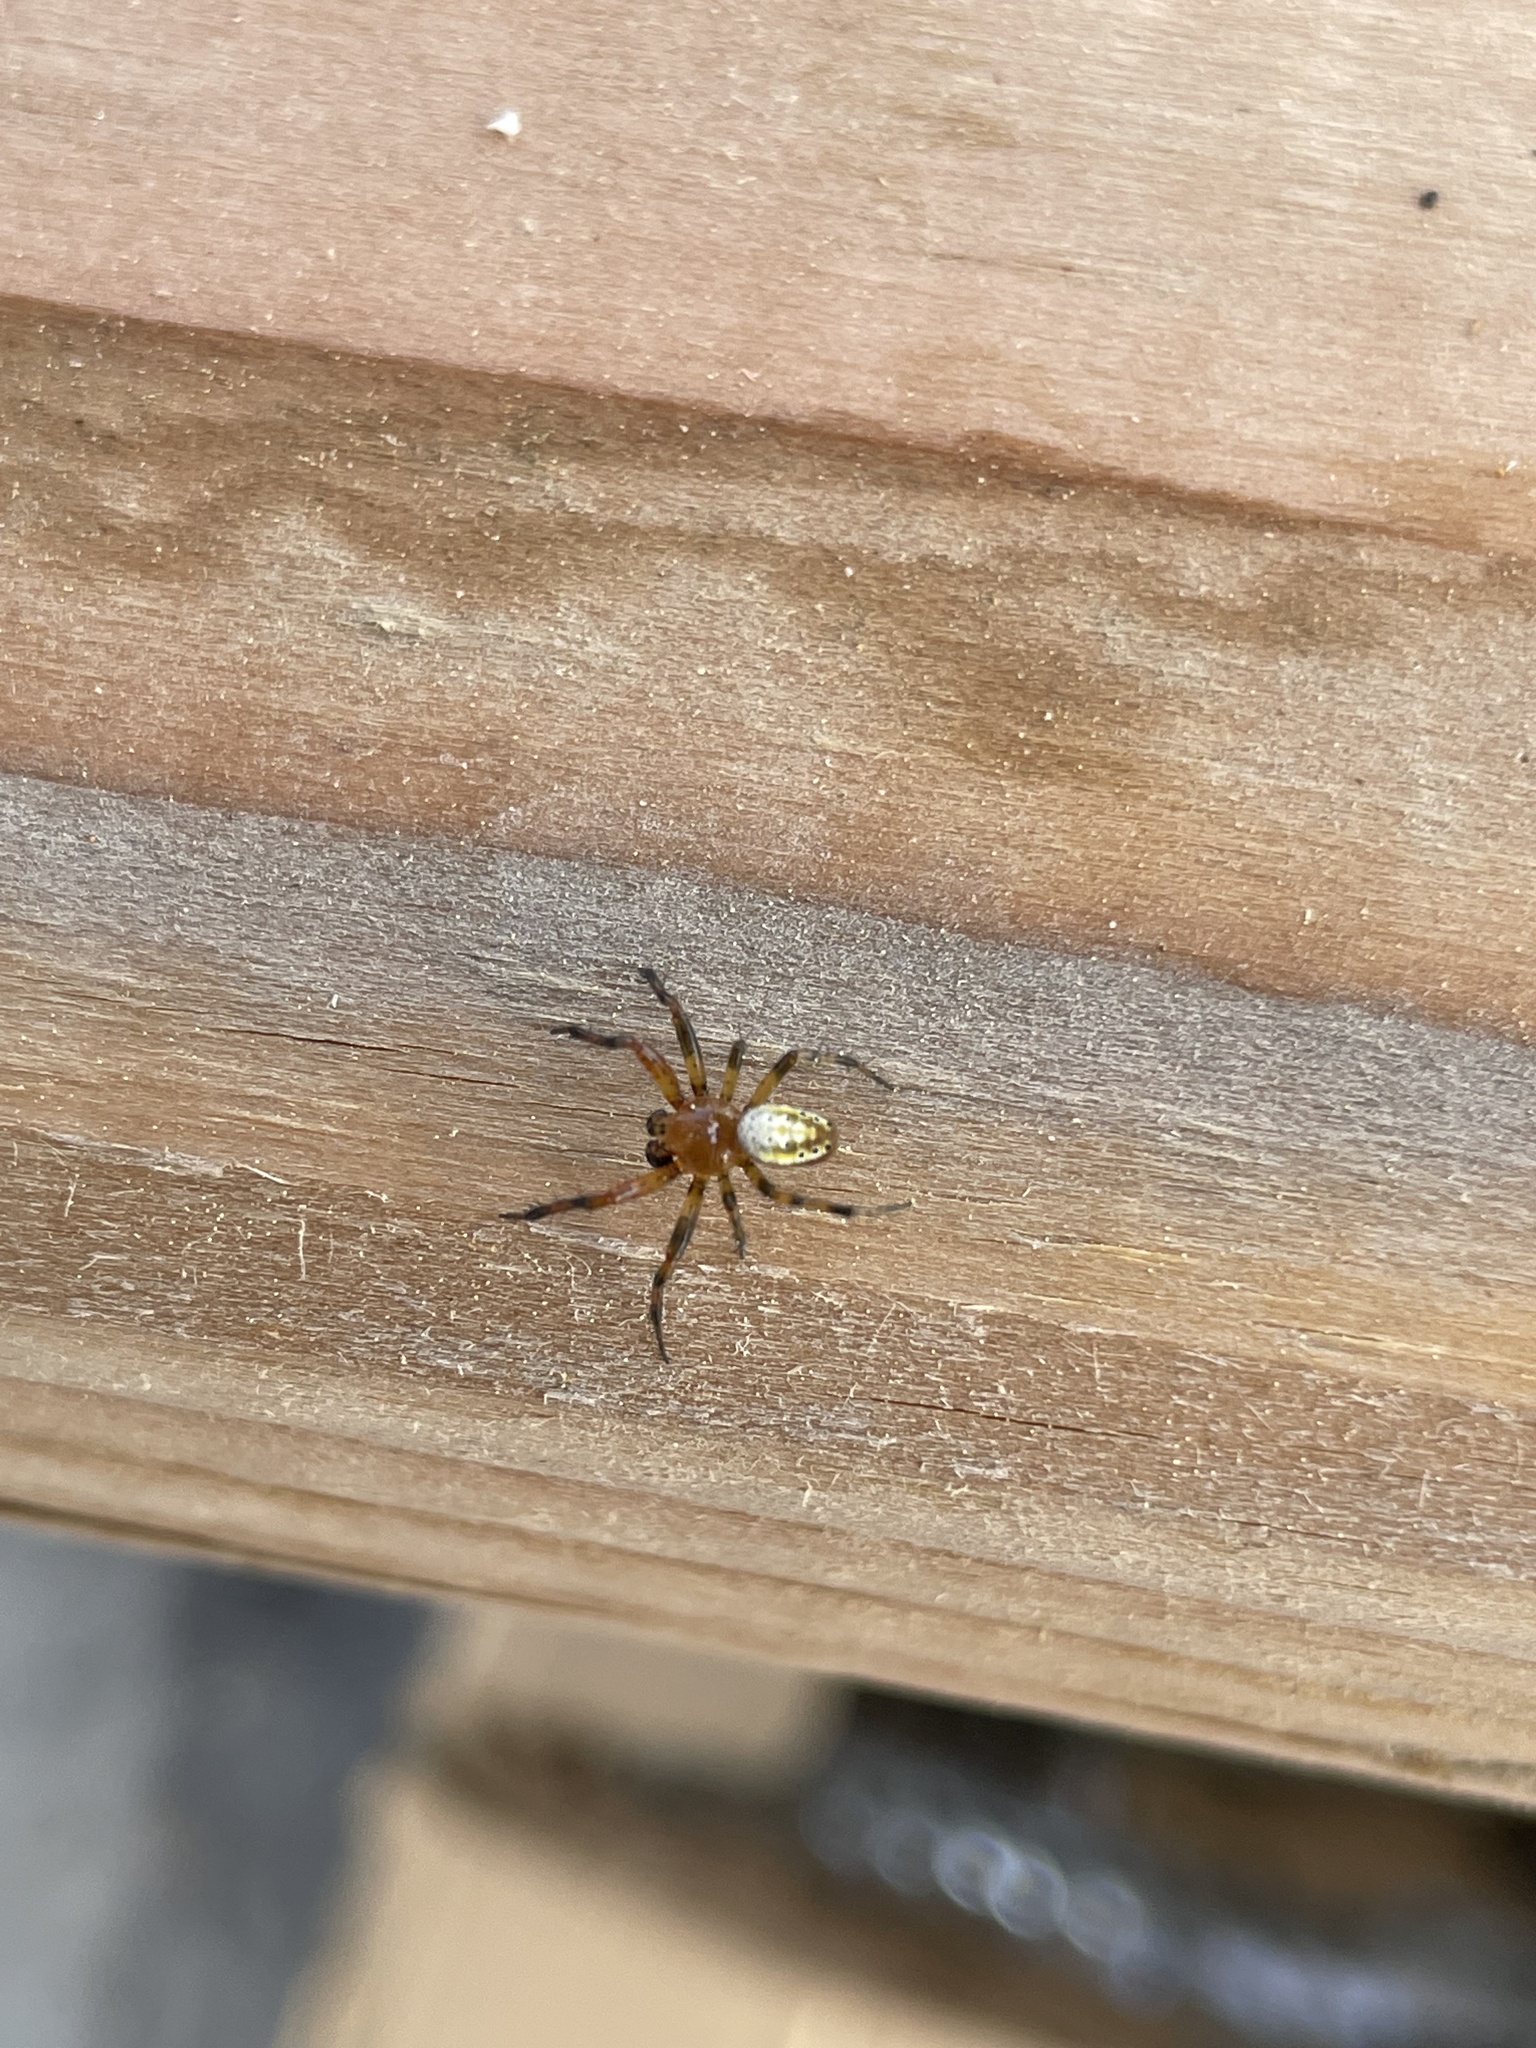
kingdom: Animalia
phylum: Arthropoda
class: Arachnida
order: Araneae
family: Araneidae
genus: Araniella
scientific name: Araniella displicata
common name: Sixspotted orb weaver
